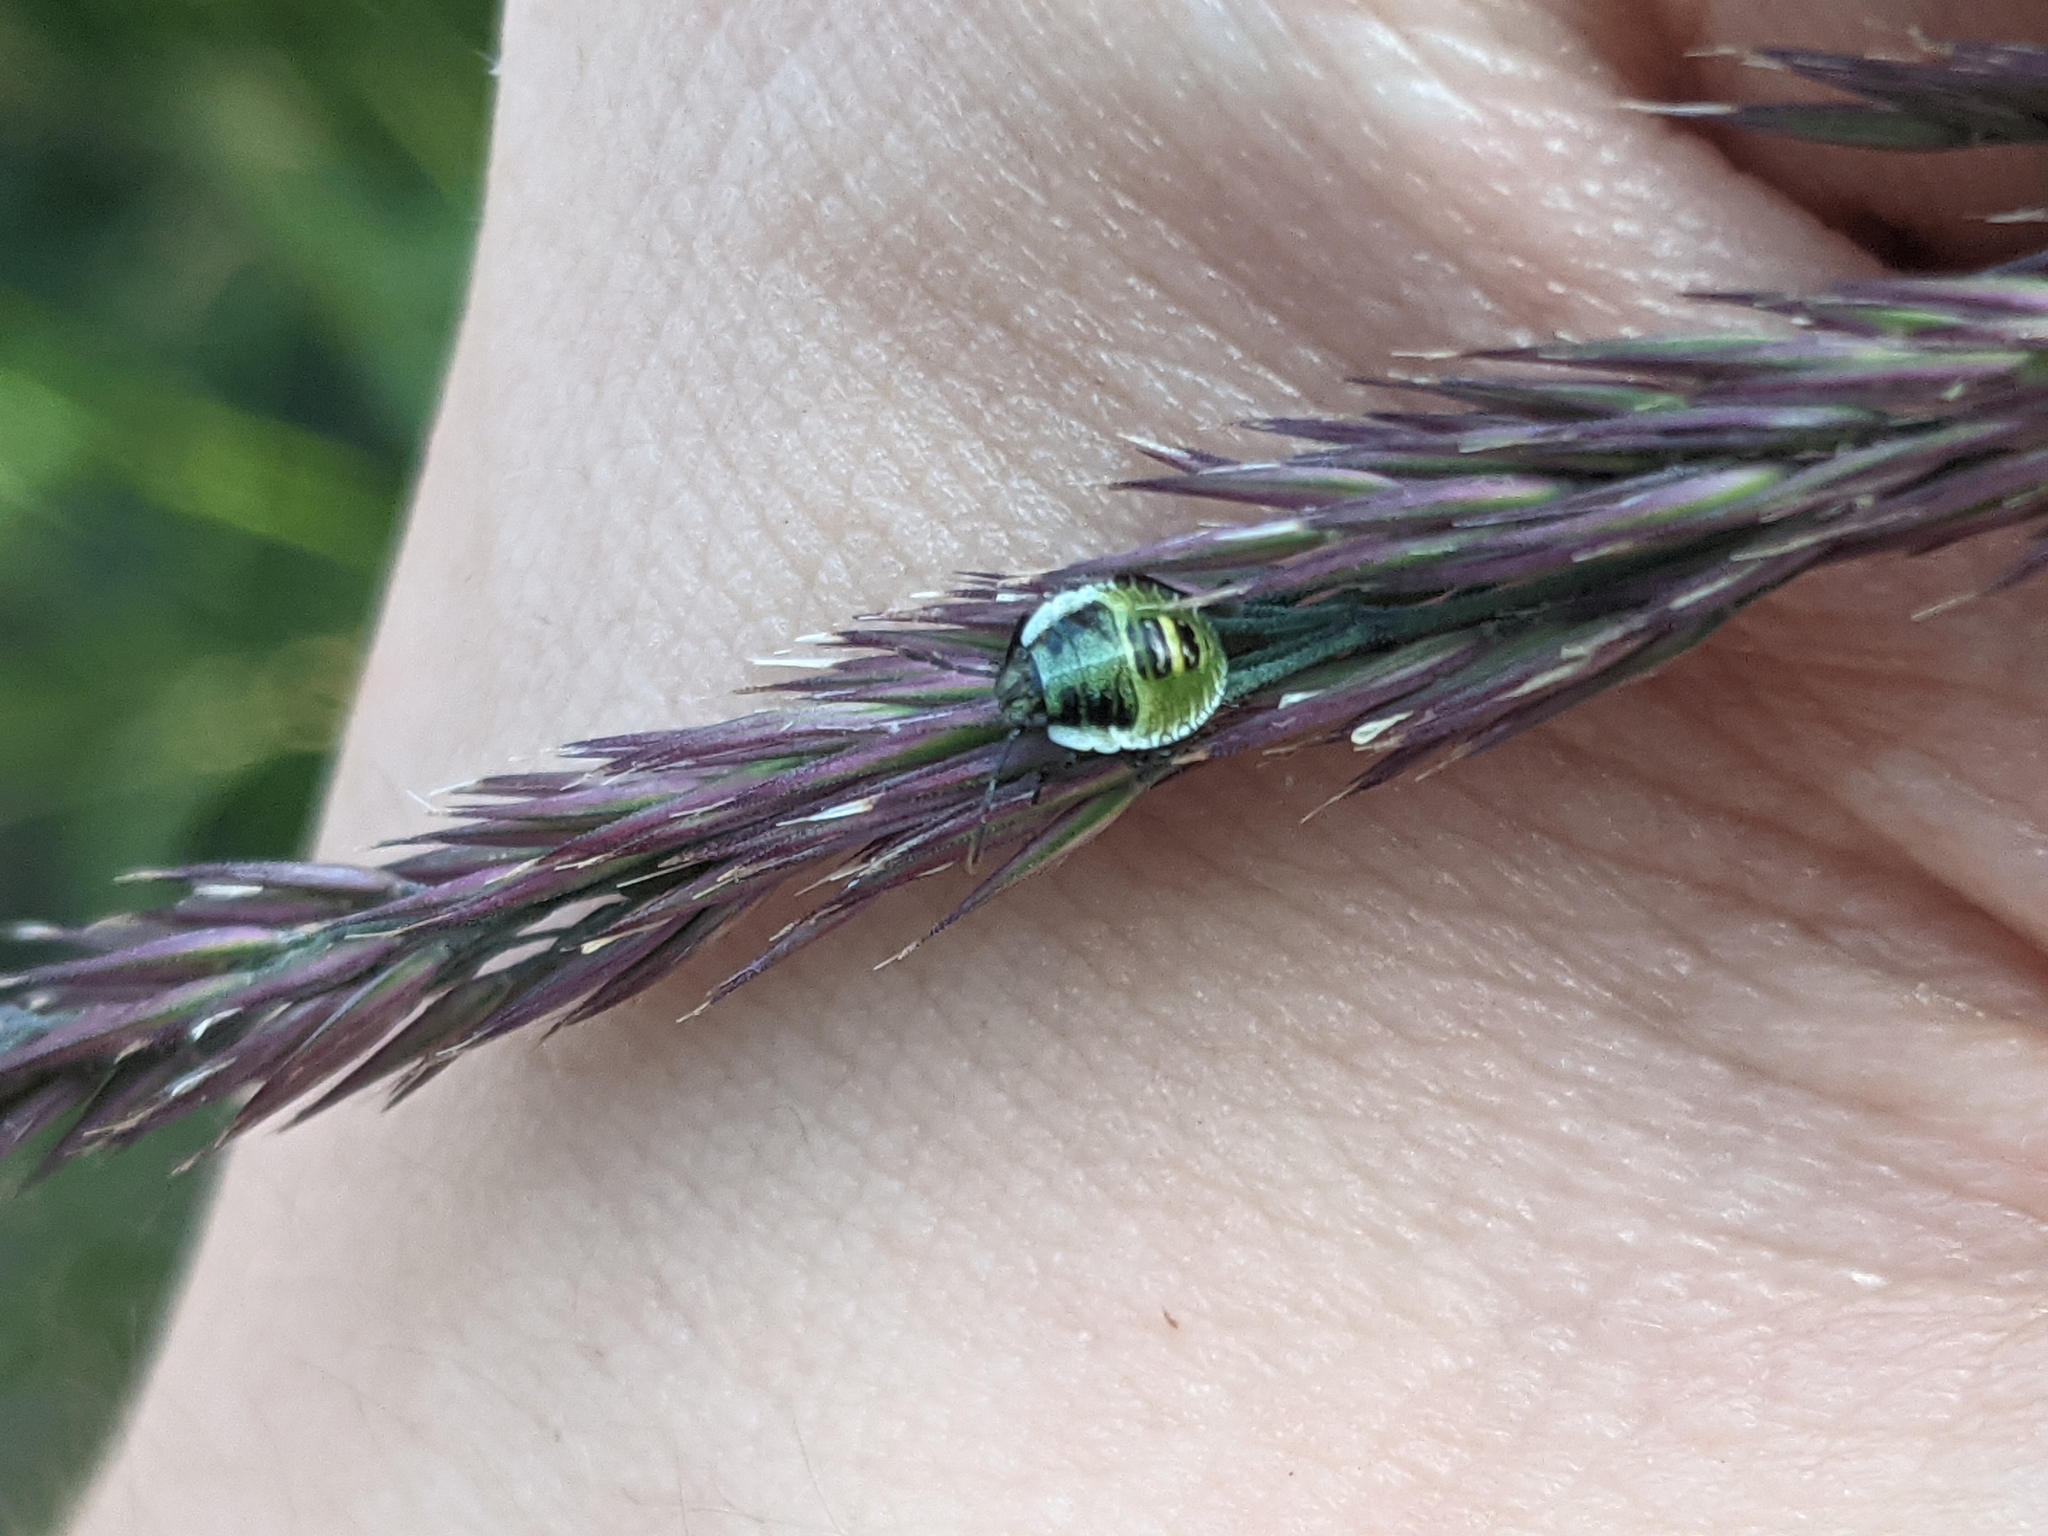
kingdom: Animalia
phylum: Arthropoda
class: Insecta
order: Hemiptera
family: Pentatomidae
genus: Palomena
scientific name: Palomena prasina
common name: Green shieldbug
